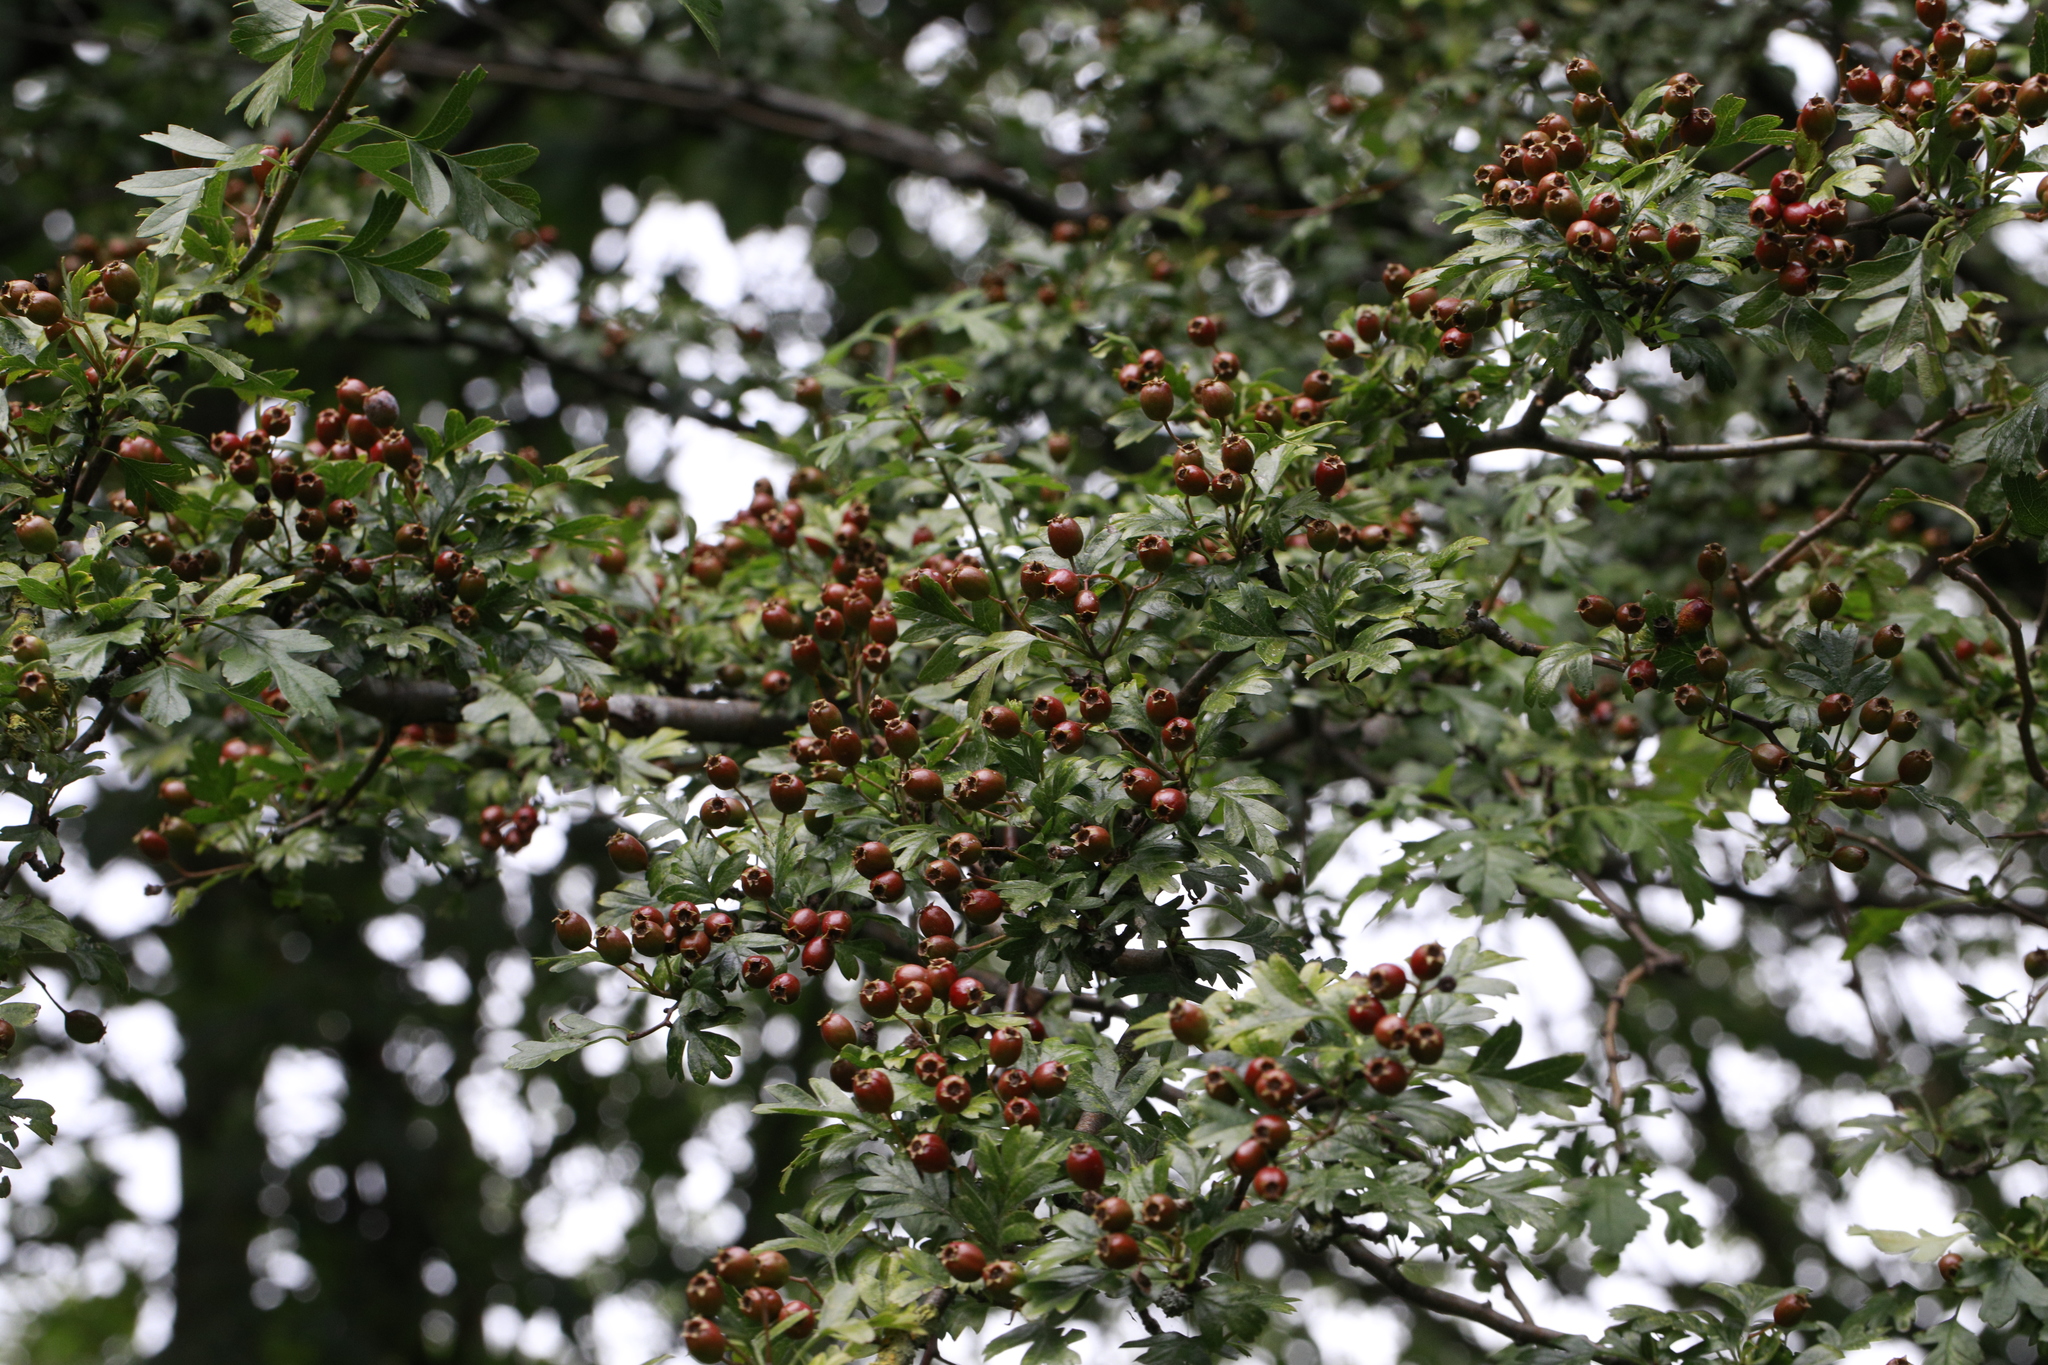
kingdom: Plantae
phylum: Tracheophyta
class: Magnoliopsida
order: Rosales
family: Rosaceae
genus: Crataegus
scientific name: Crataegus monogyna
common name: Hawthorn
